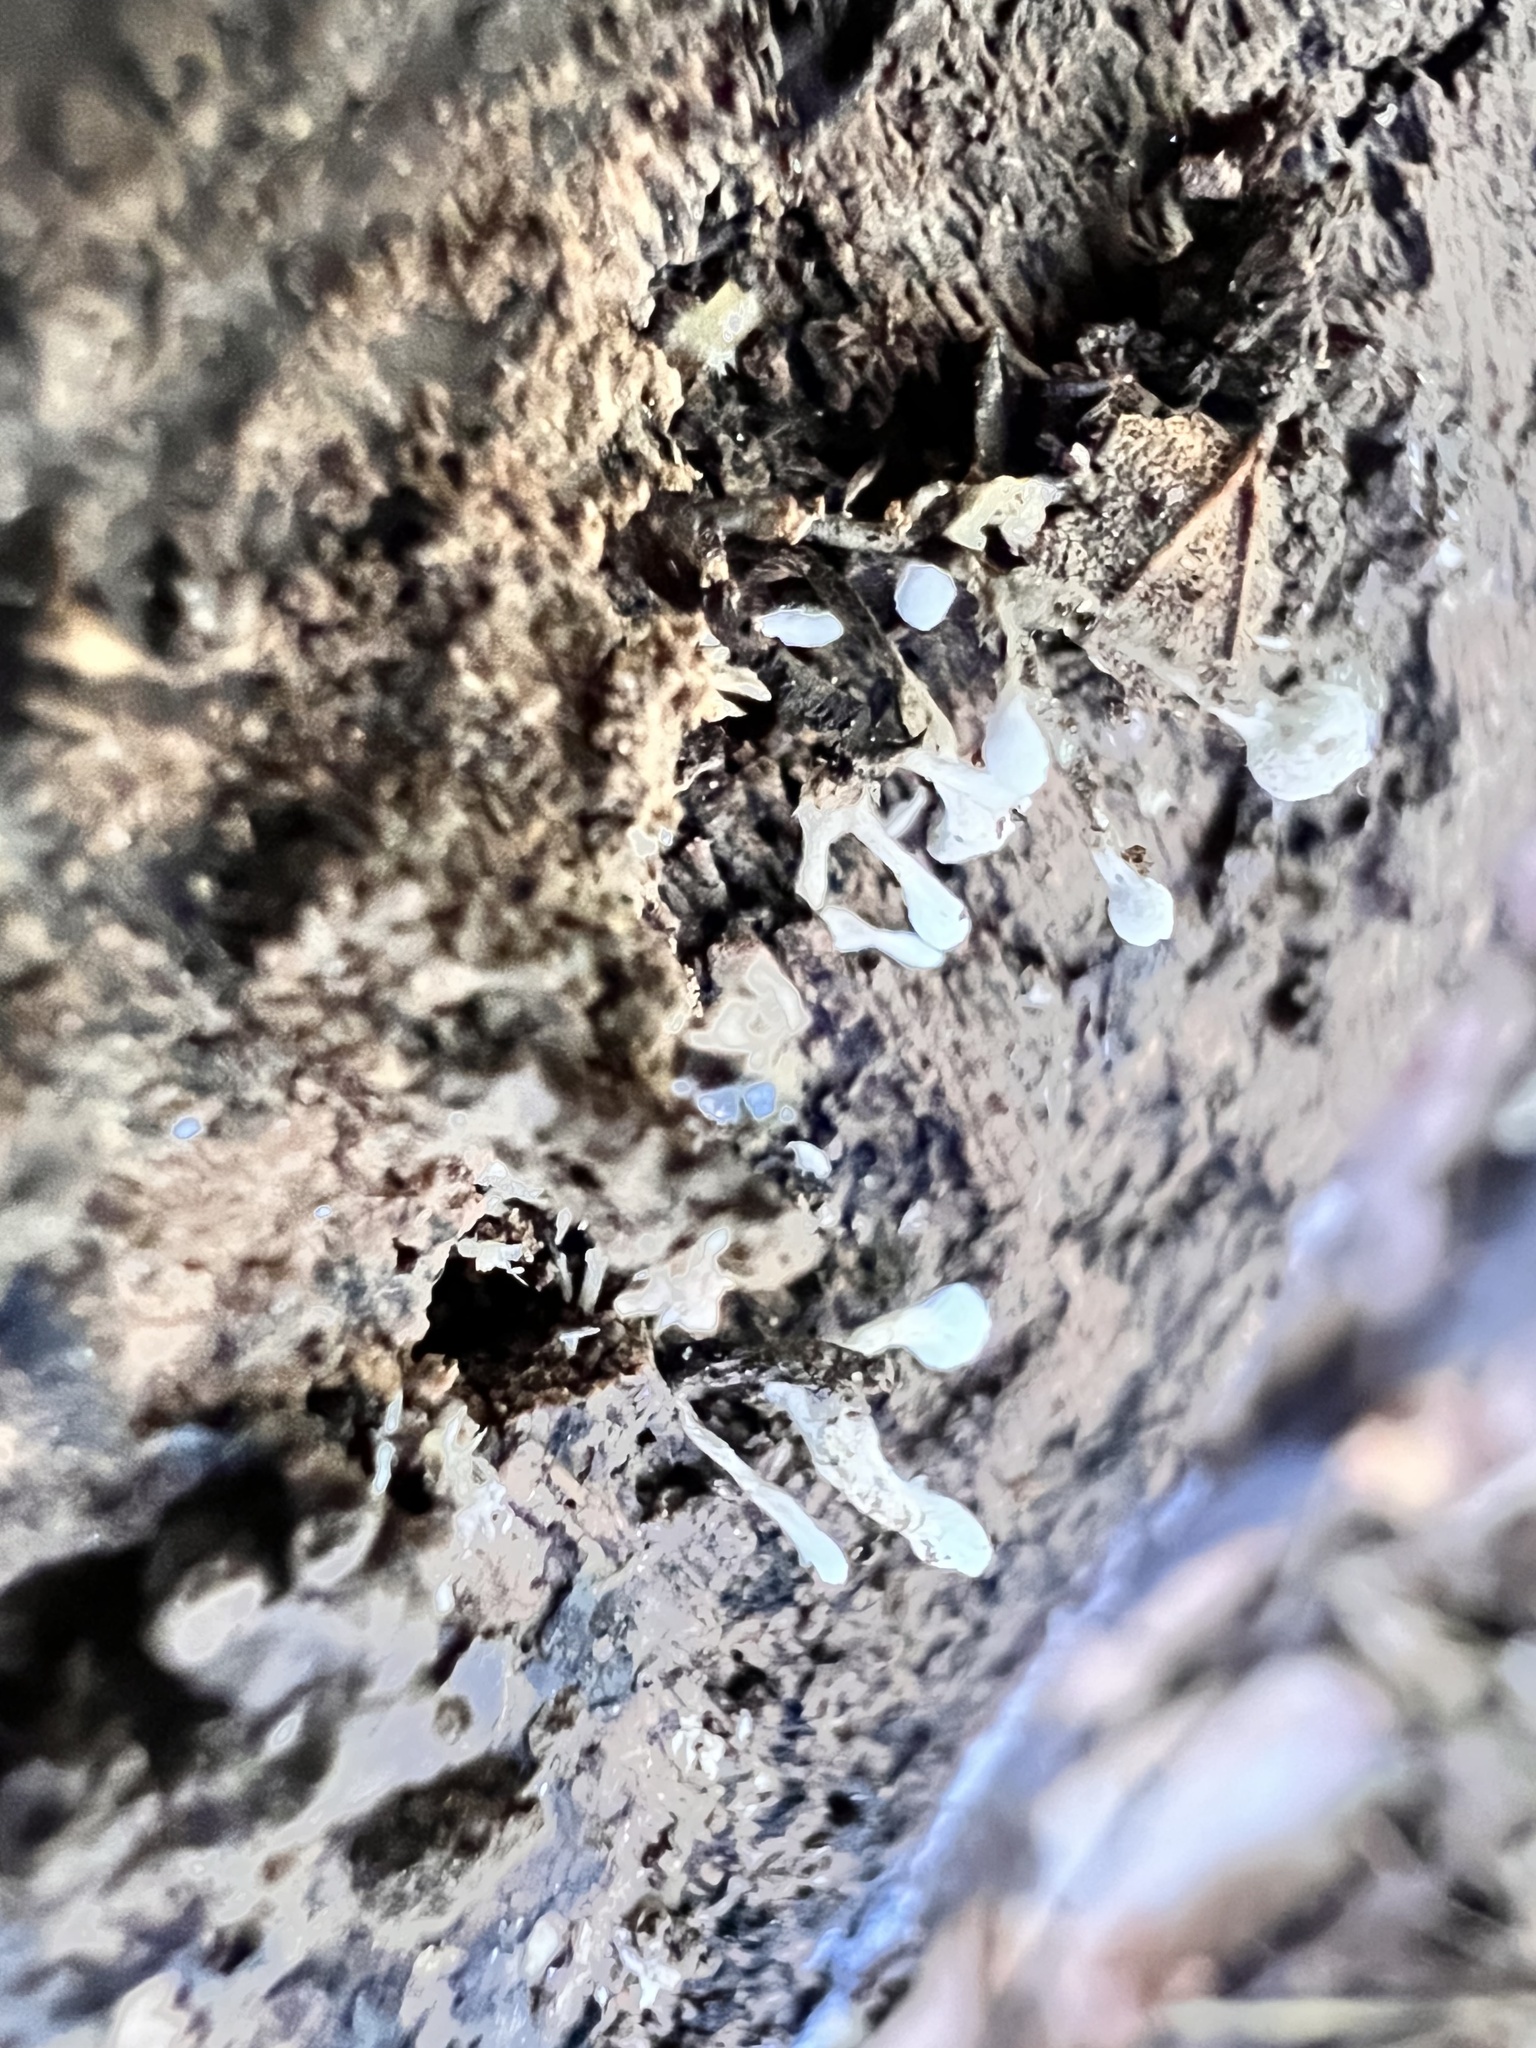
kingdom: Fungi
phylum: Basidiomycota
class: Atractiellomycetes
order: Atractiellales
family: Phleogenaceae
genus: Phleogena
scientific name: Phleogena faginea
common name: Fenugreek stalkball
